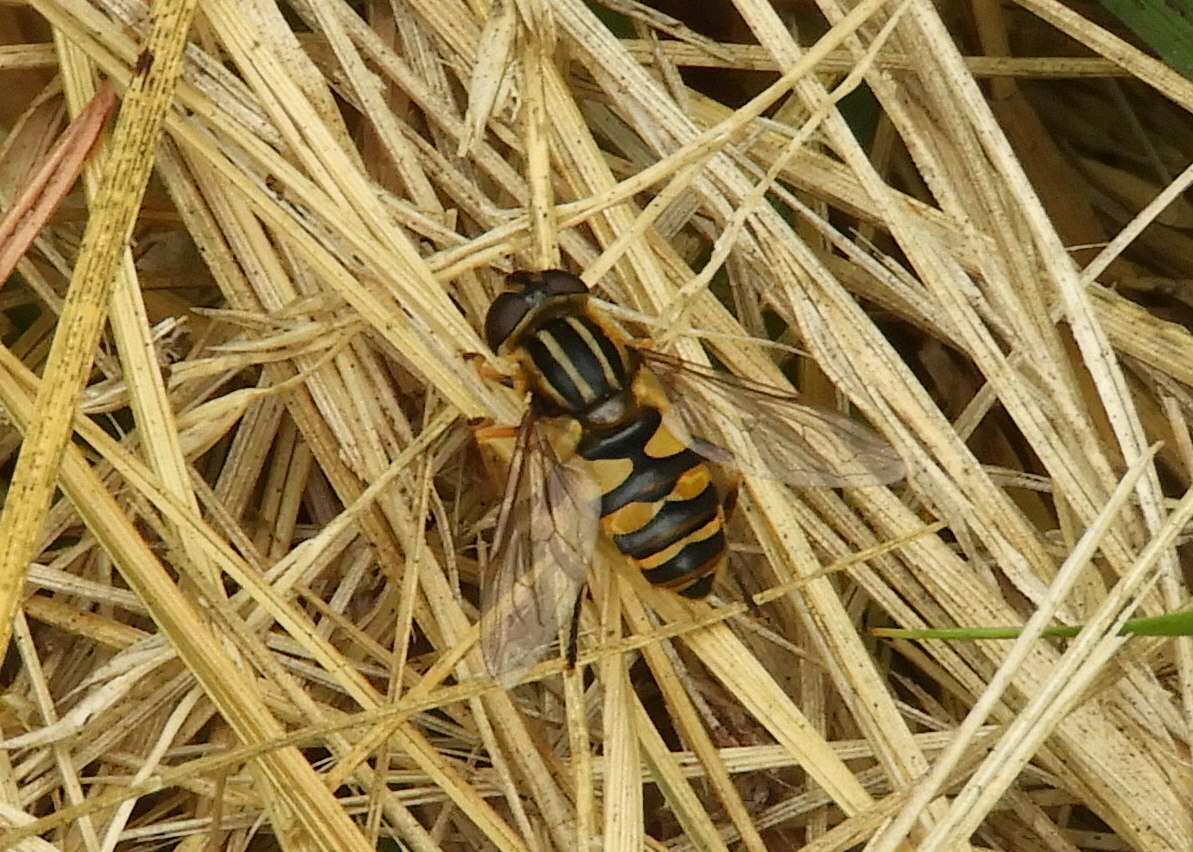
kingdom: Animalia
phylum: Arthropoda
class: Insecta
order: Diptera
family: Syrphidae
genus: Helophilus
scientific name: Helophilus fasciatus
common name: Narrow-headed marsh fly
